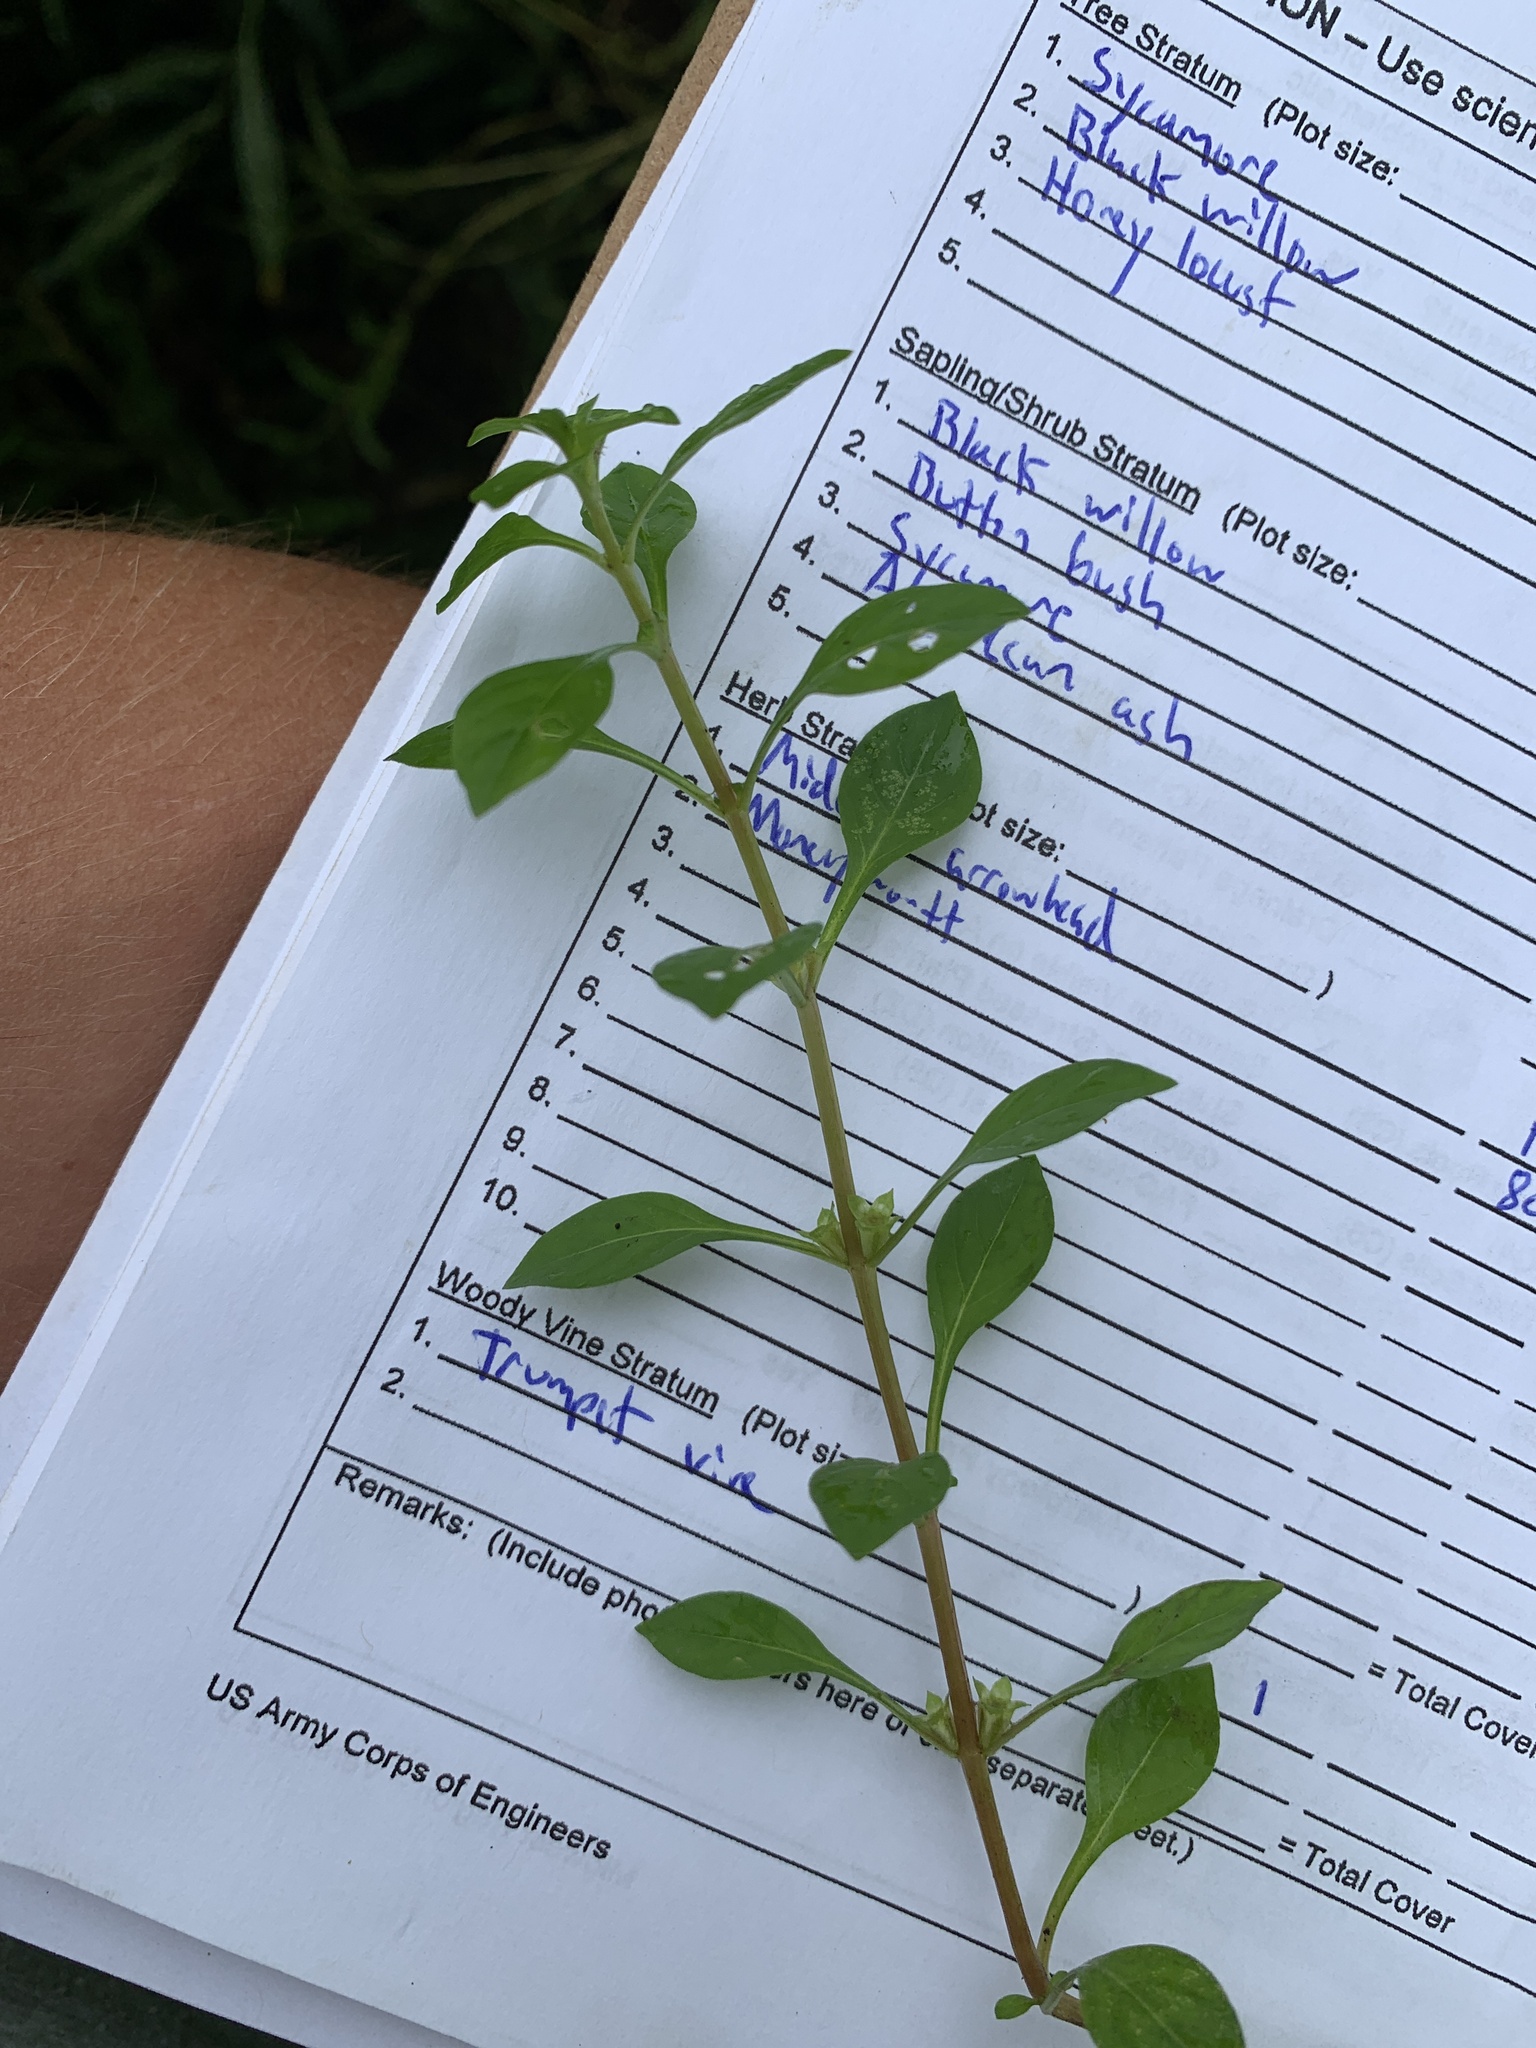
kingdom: Plantae
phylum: Tracheophyta
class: Magnoliopsida
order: Myrtales
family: Onagraceae
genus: Ludwigia
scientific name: Ludwigia palustris
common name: Hampshire-purslane
